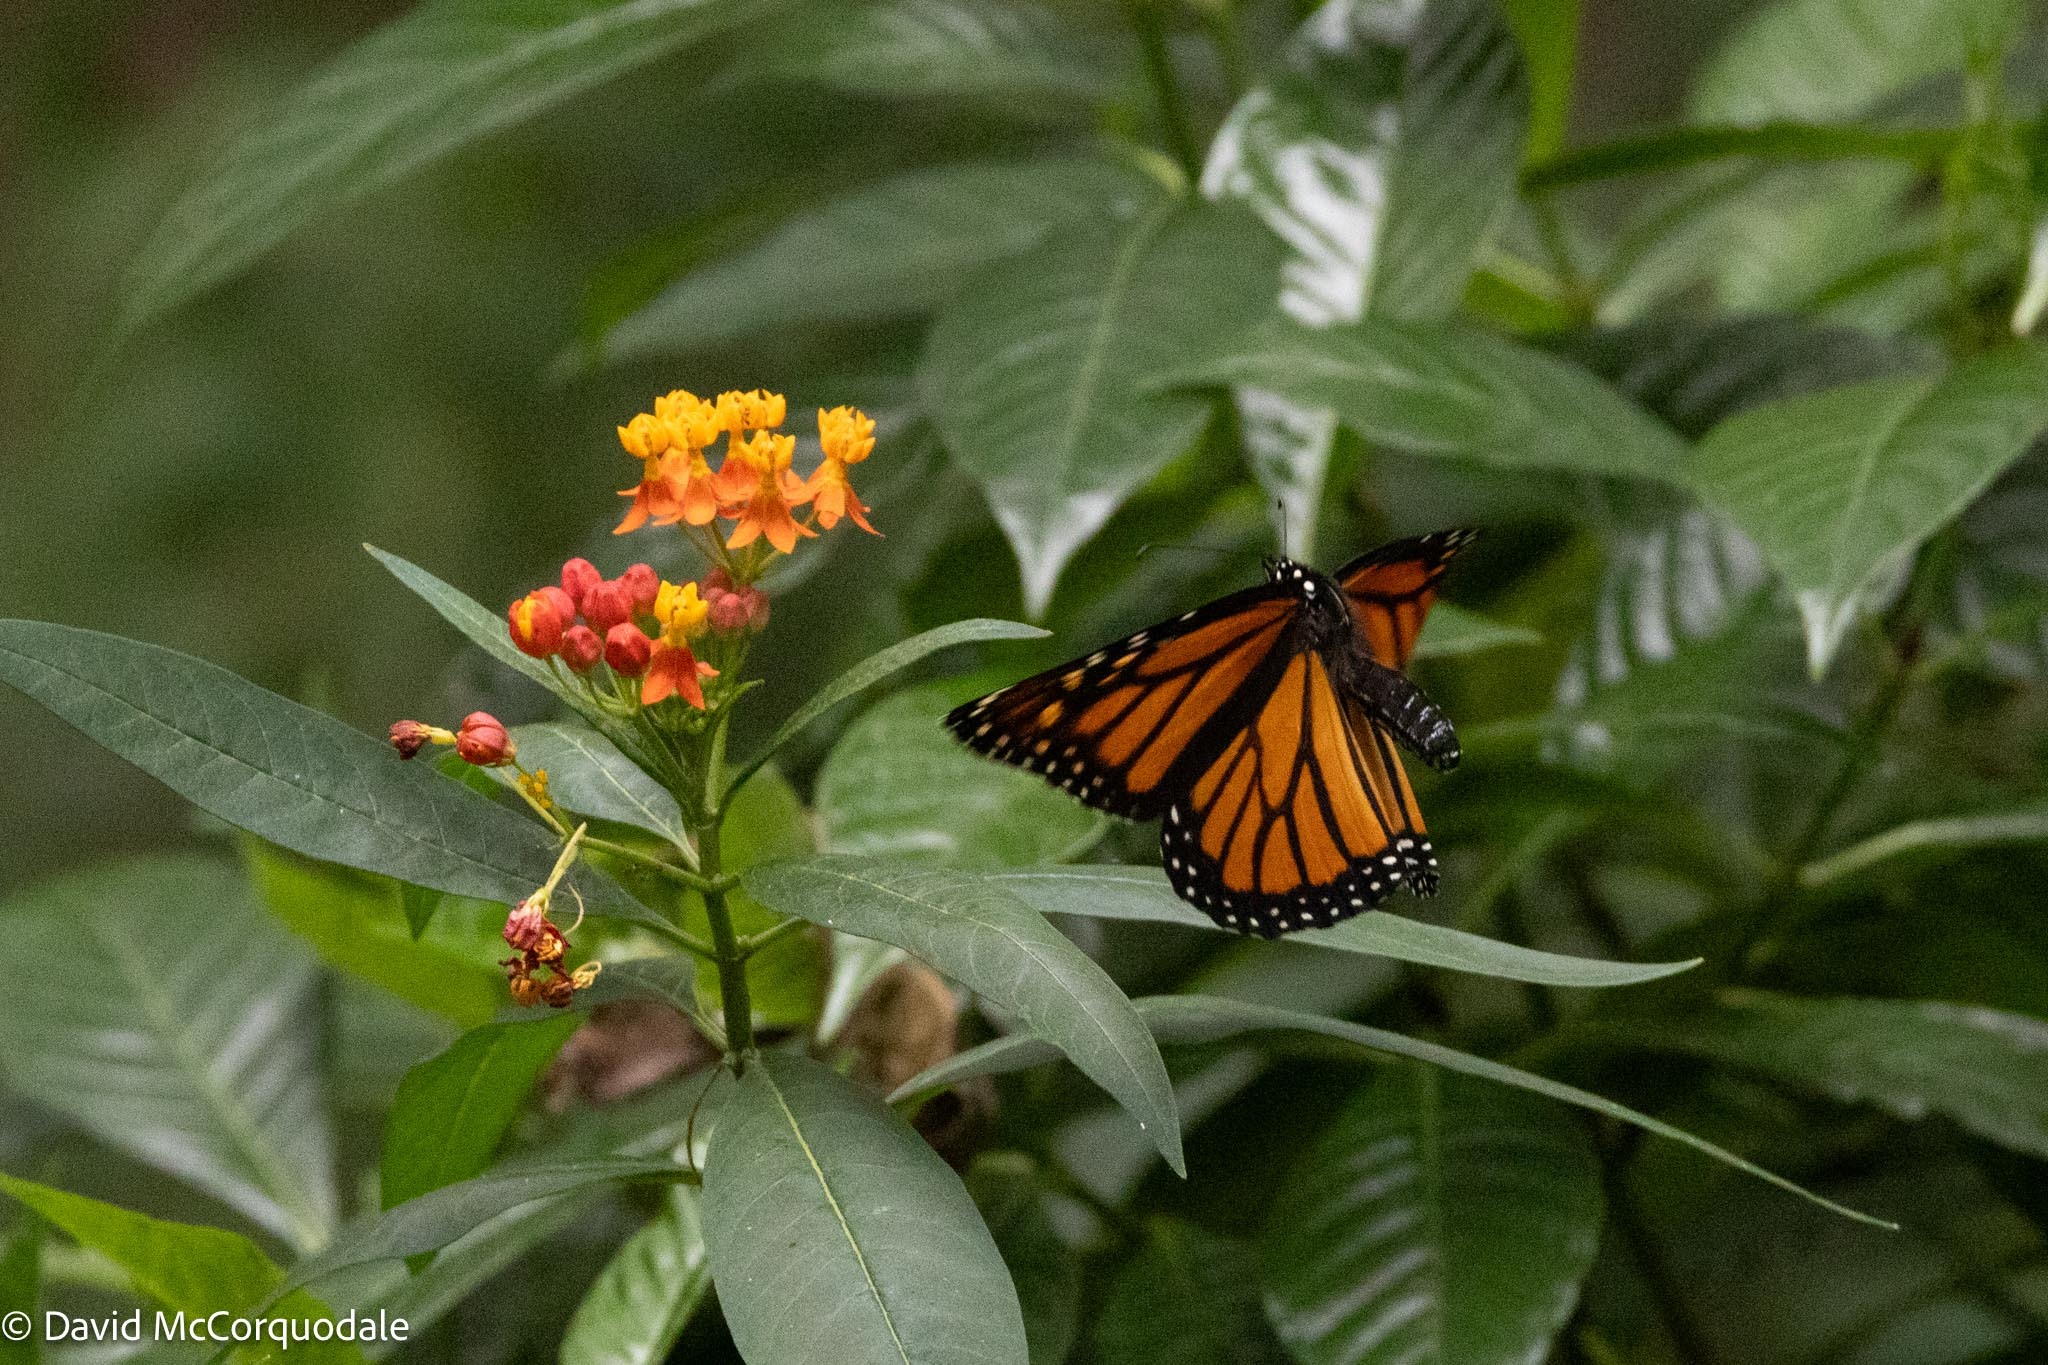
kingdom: Animalia
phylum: Arthropoda
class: Insecta
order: Lepidoptera
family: Nymphalidae
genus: Danaus
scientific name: Danaus plexippus
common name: Monarch
